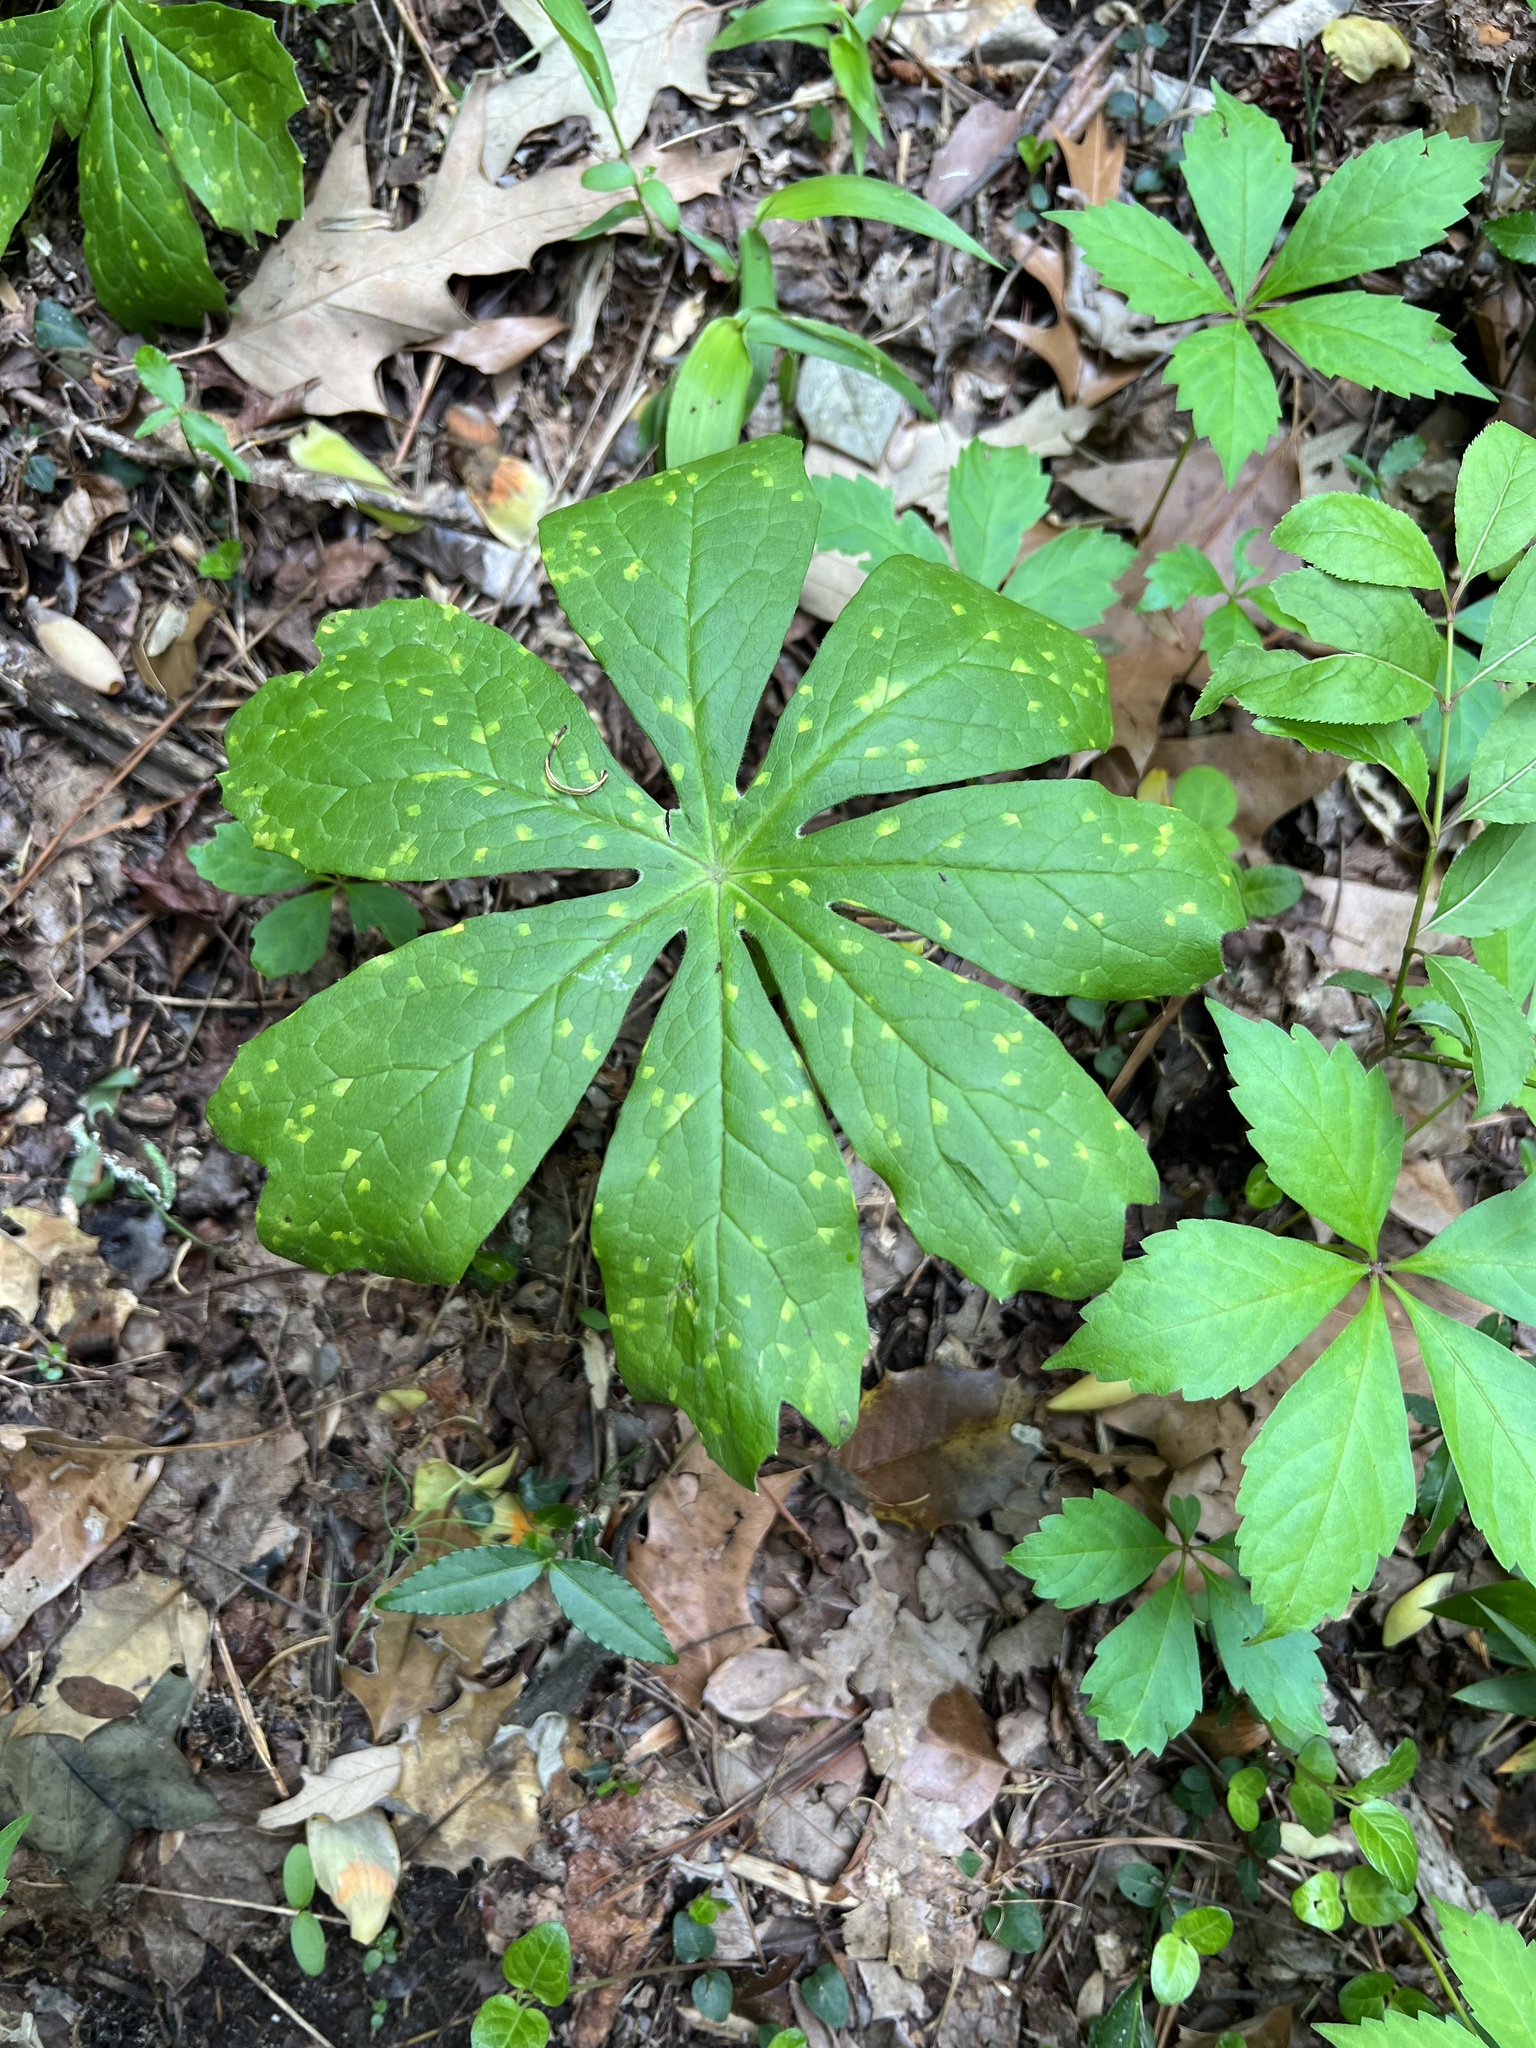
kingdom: Fungi
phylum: Basidiomycota
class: Pucciniomycetes
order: Pucciniales
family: Pucciniaceae
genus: Puccinia
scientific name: Puccinia podophylli
